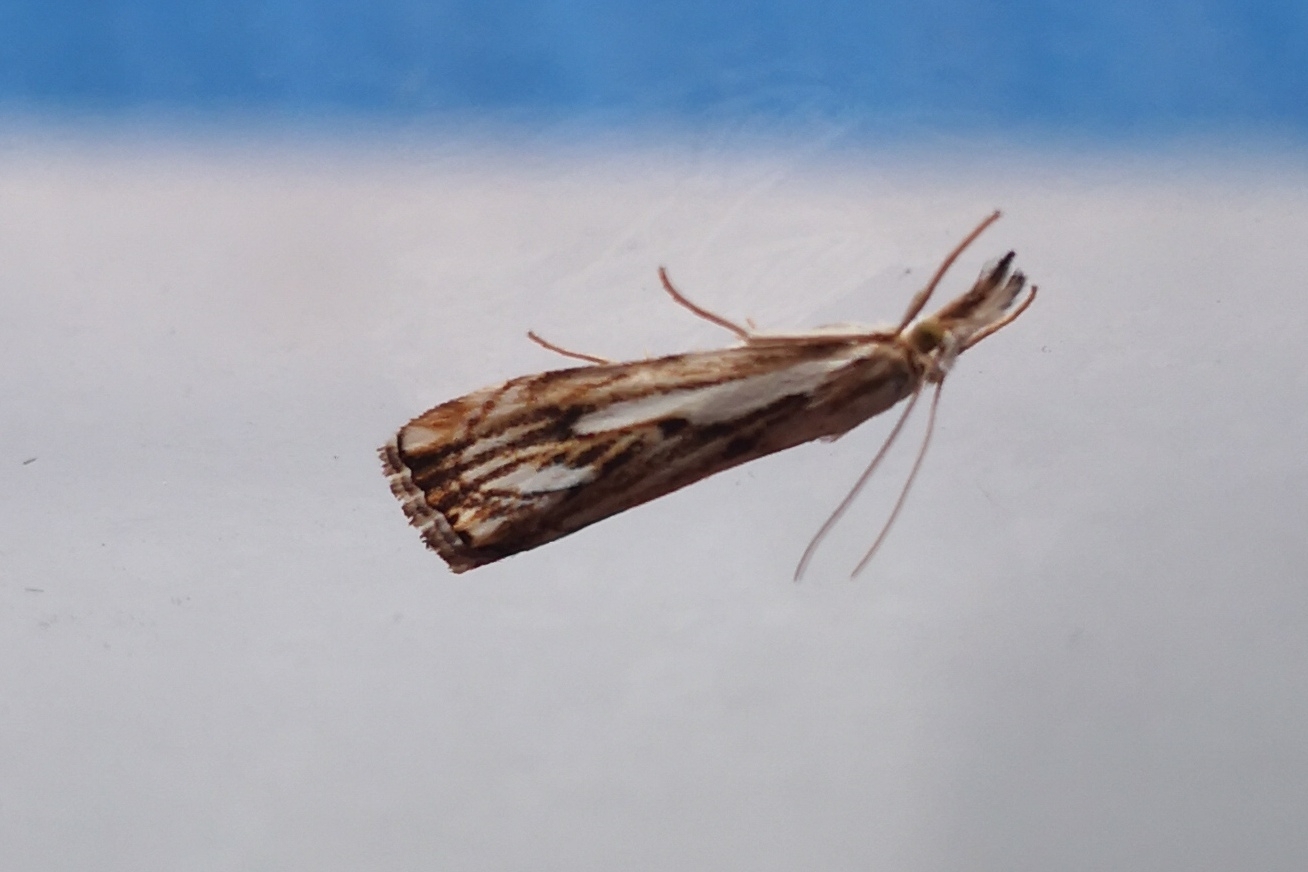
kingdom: Animalia
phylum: Arthropoda
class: Insecta
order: Lepidoptera
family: Crambidae
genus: Catoptria
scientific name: Catoptria falsella
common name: Chequered grass-veneer
